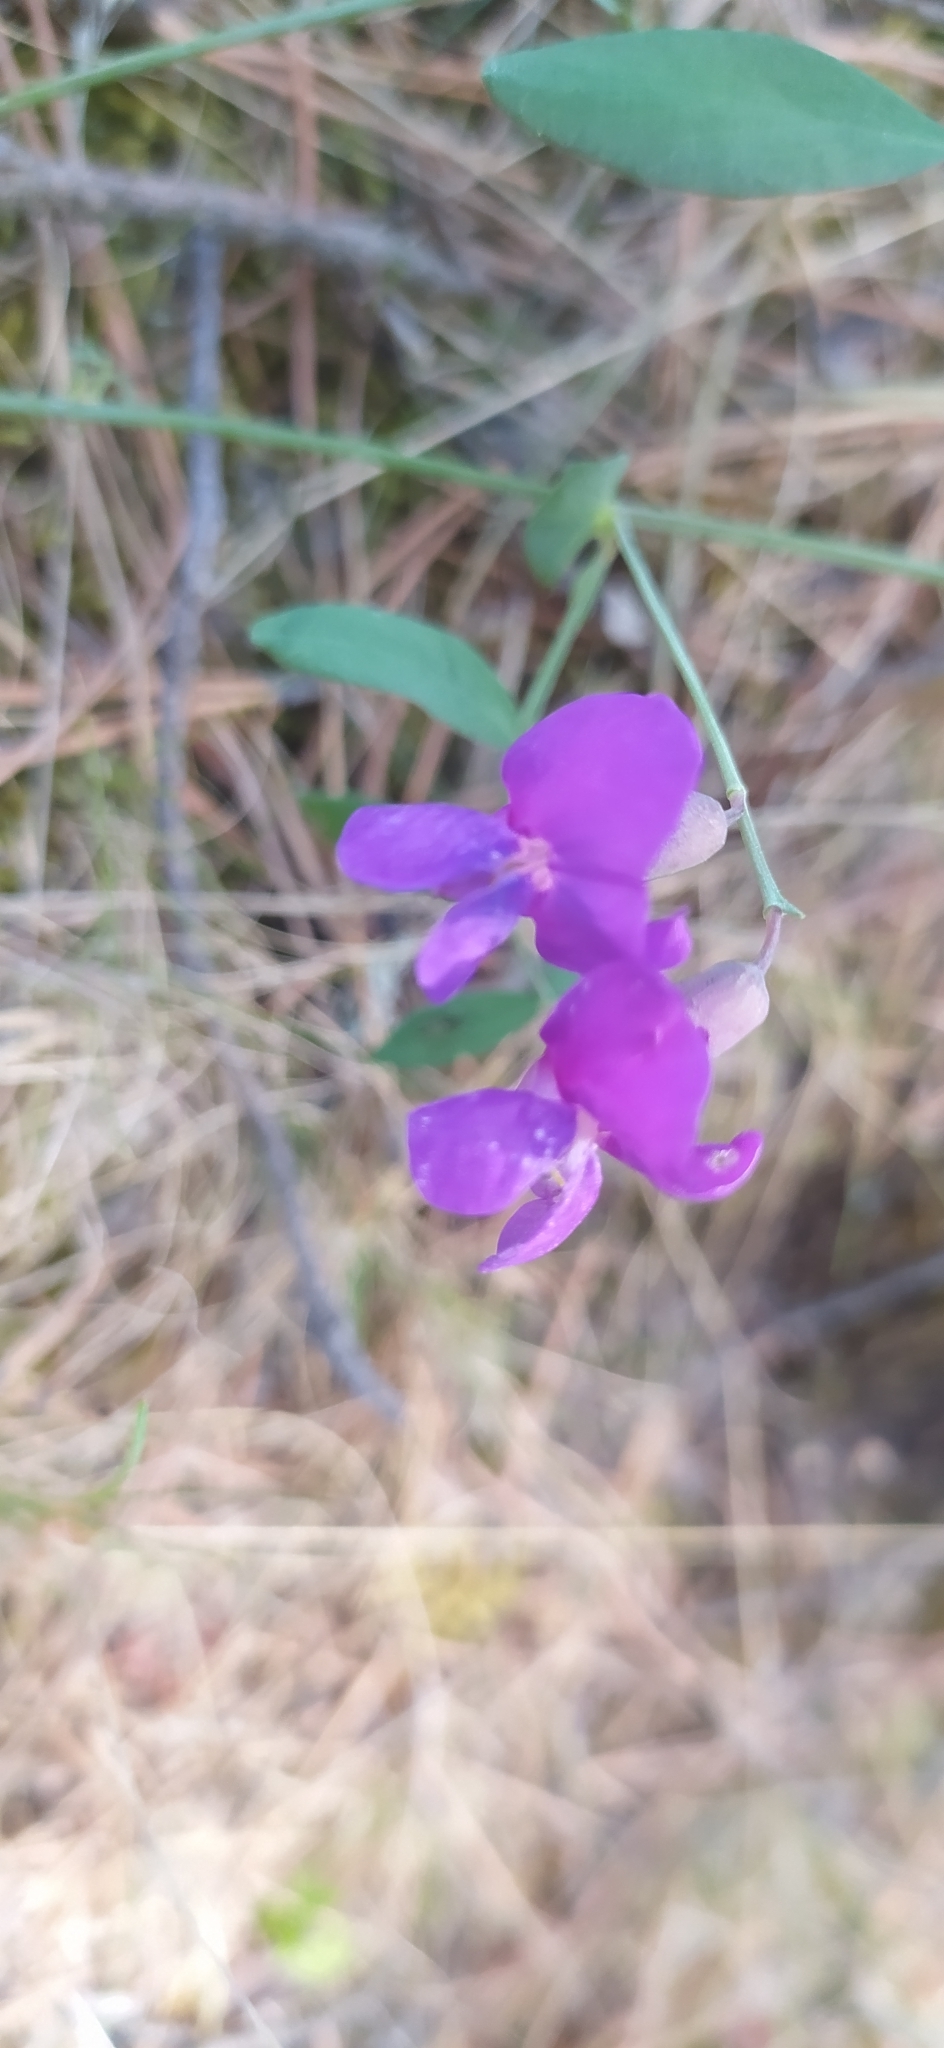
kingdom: Plantae
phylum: Tracheophyta
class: Magnoliopsida
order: Fabales
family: Fabaceae
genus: Lathyrus
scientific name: Lathyrus humilis
